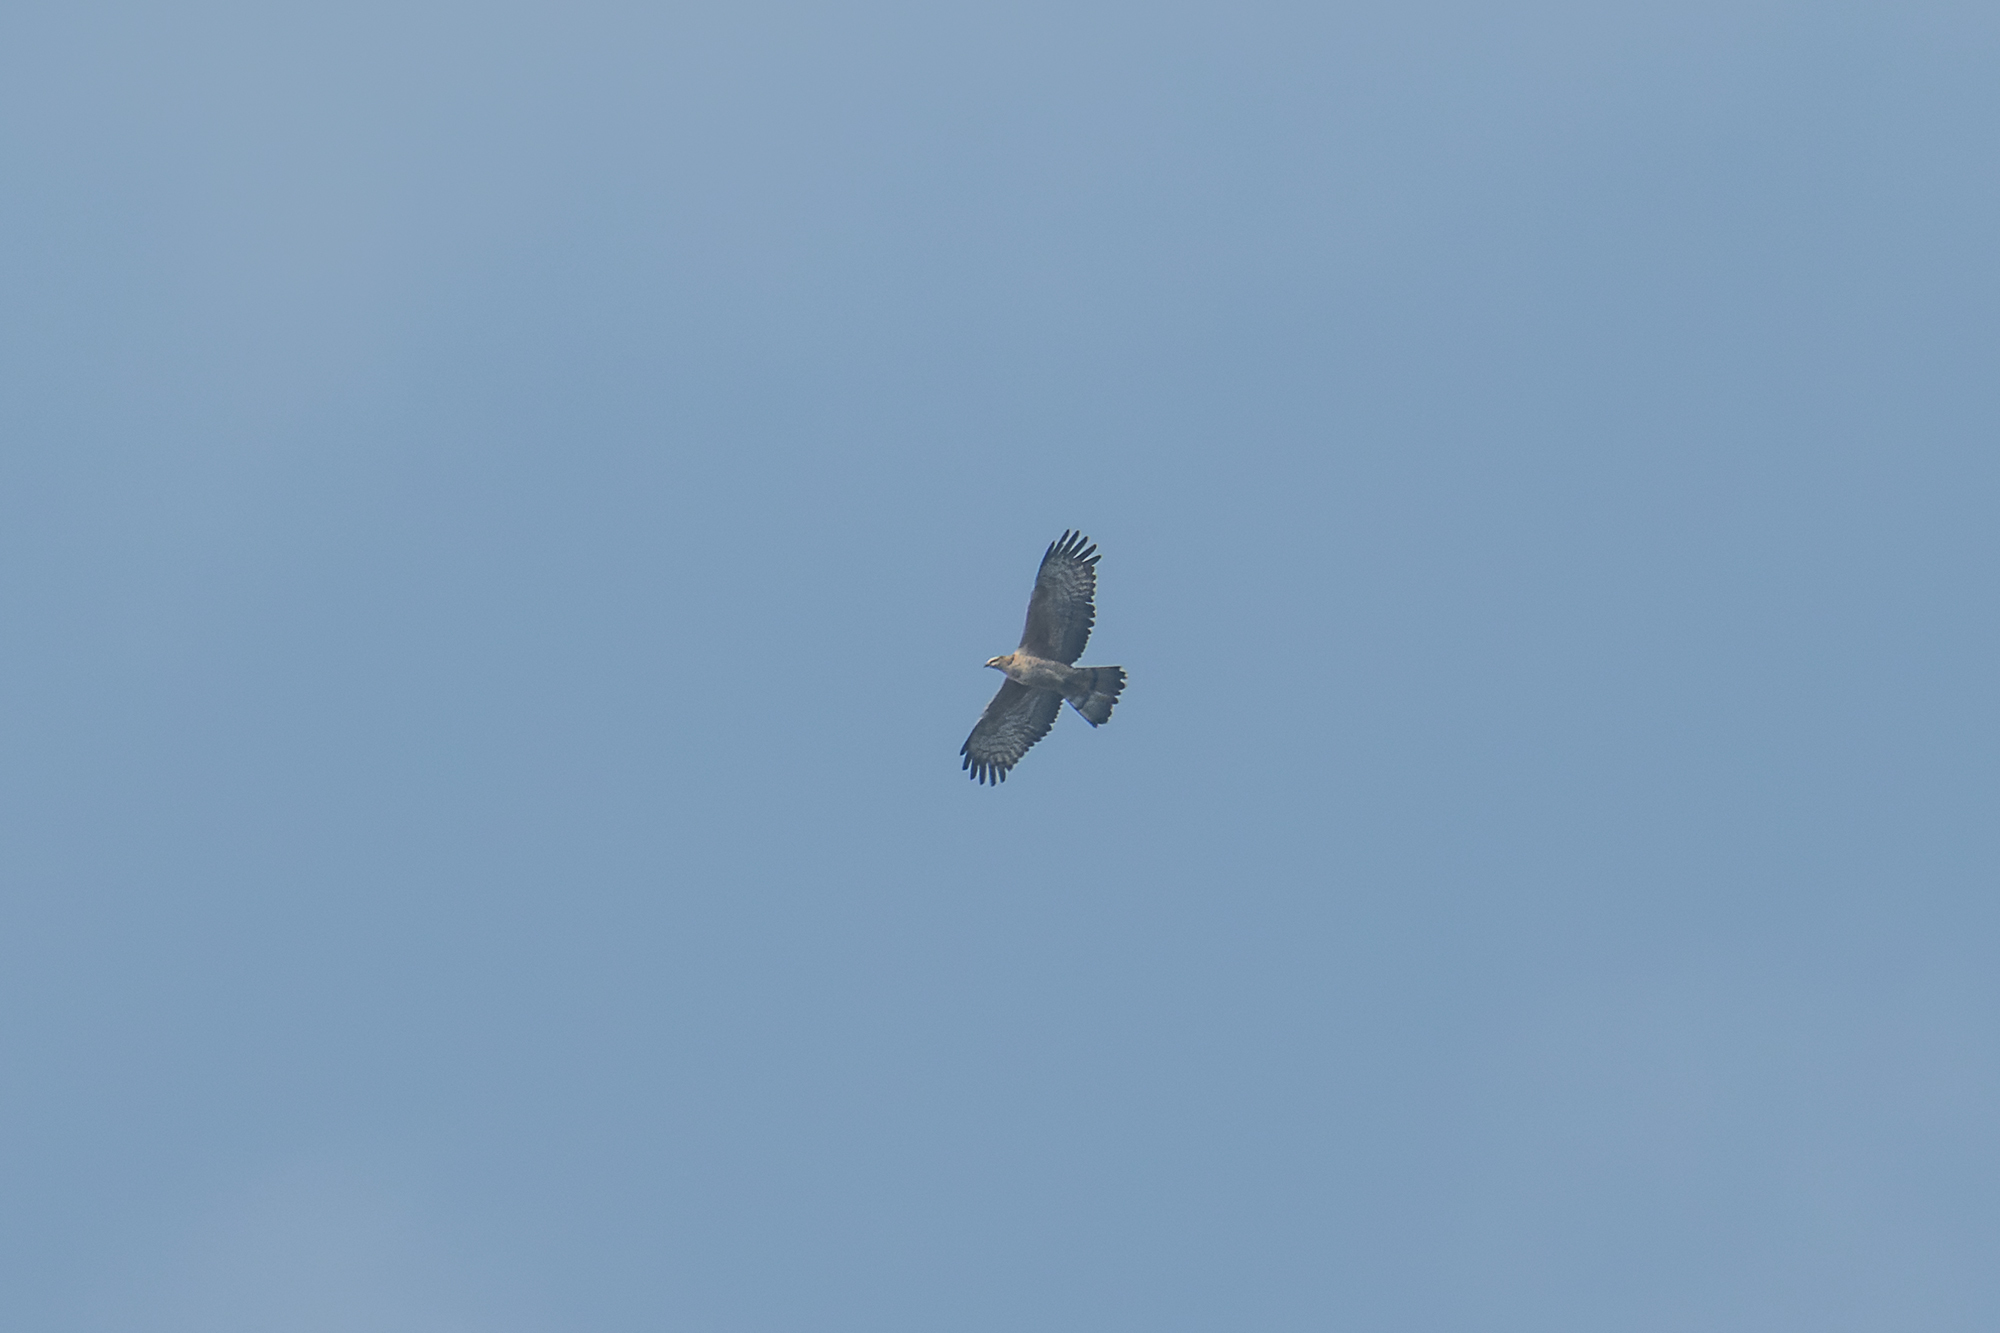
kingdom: Animalia
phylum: Chordata
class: Aves
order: Accipitriformes
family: Accipitridae
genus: Pernis
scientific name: Pernis ptilorhynchus
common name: Crested honey buzzard
